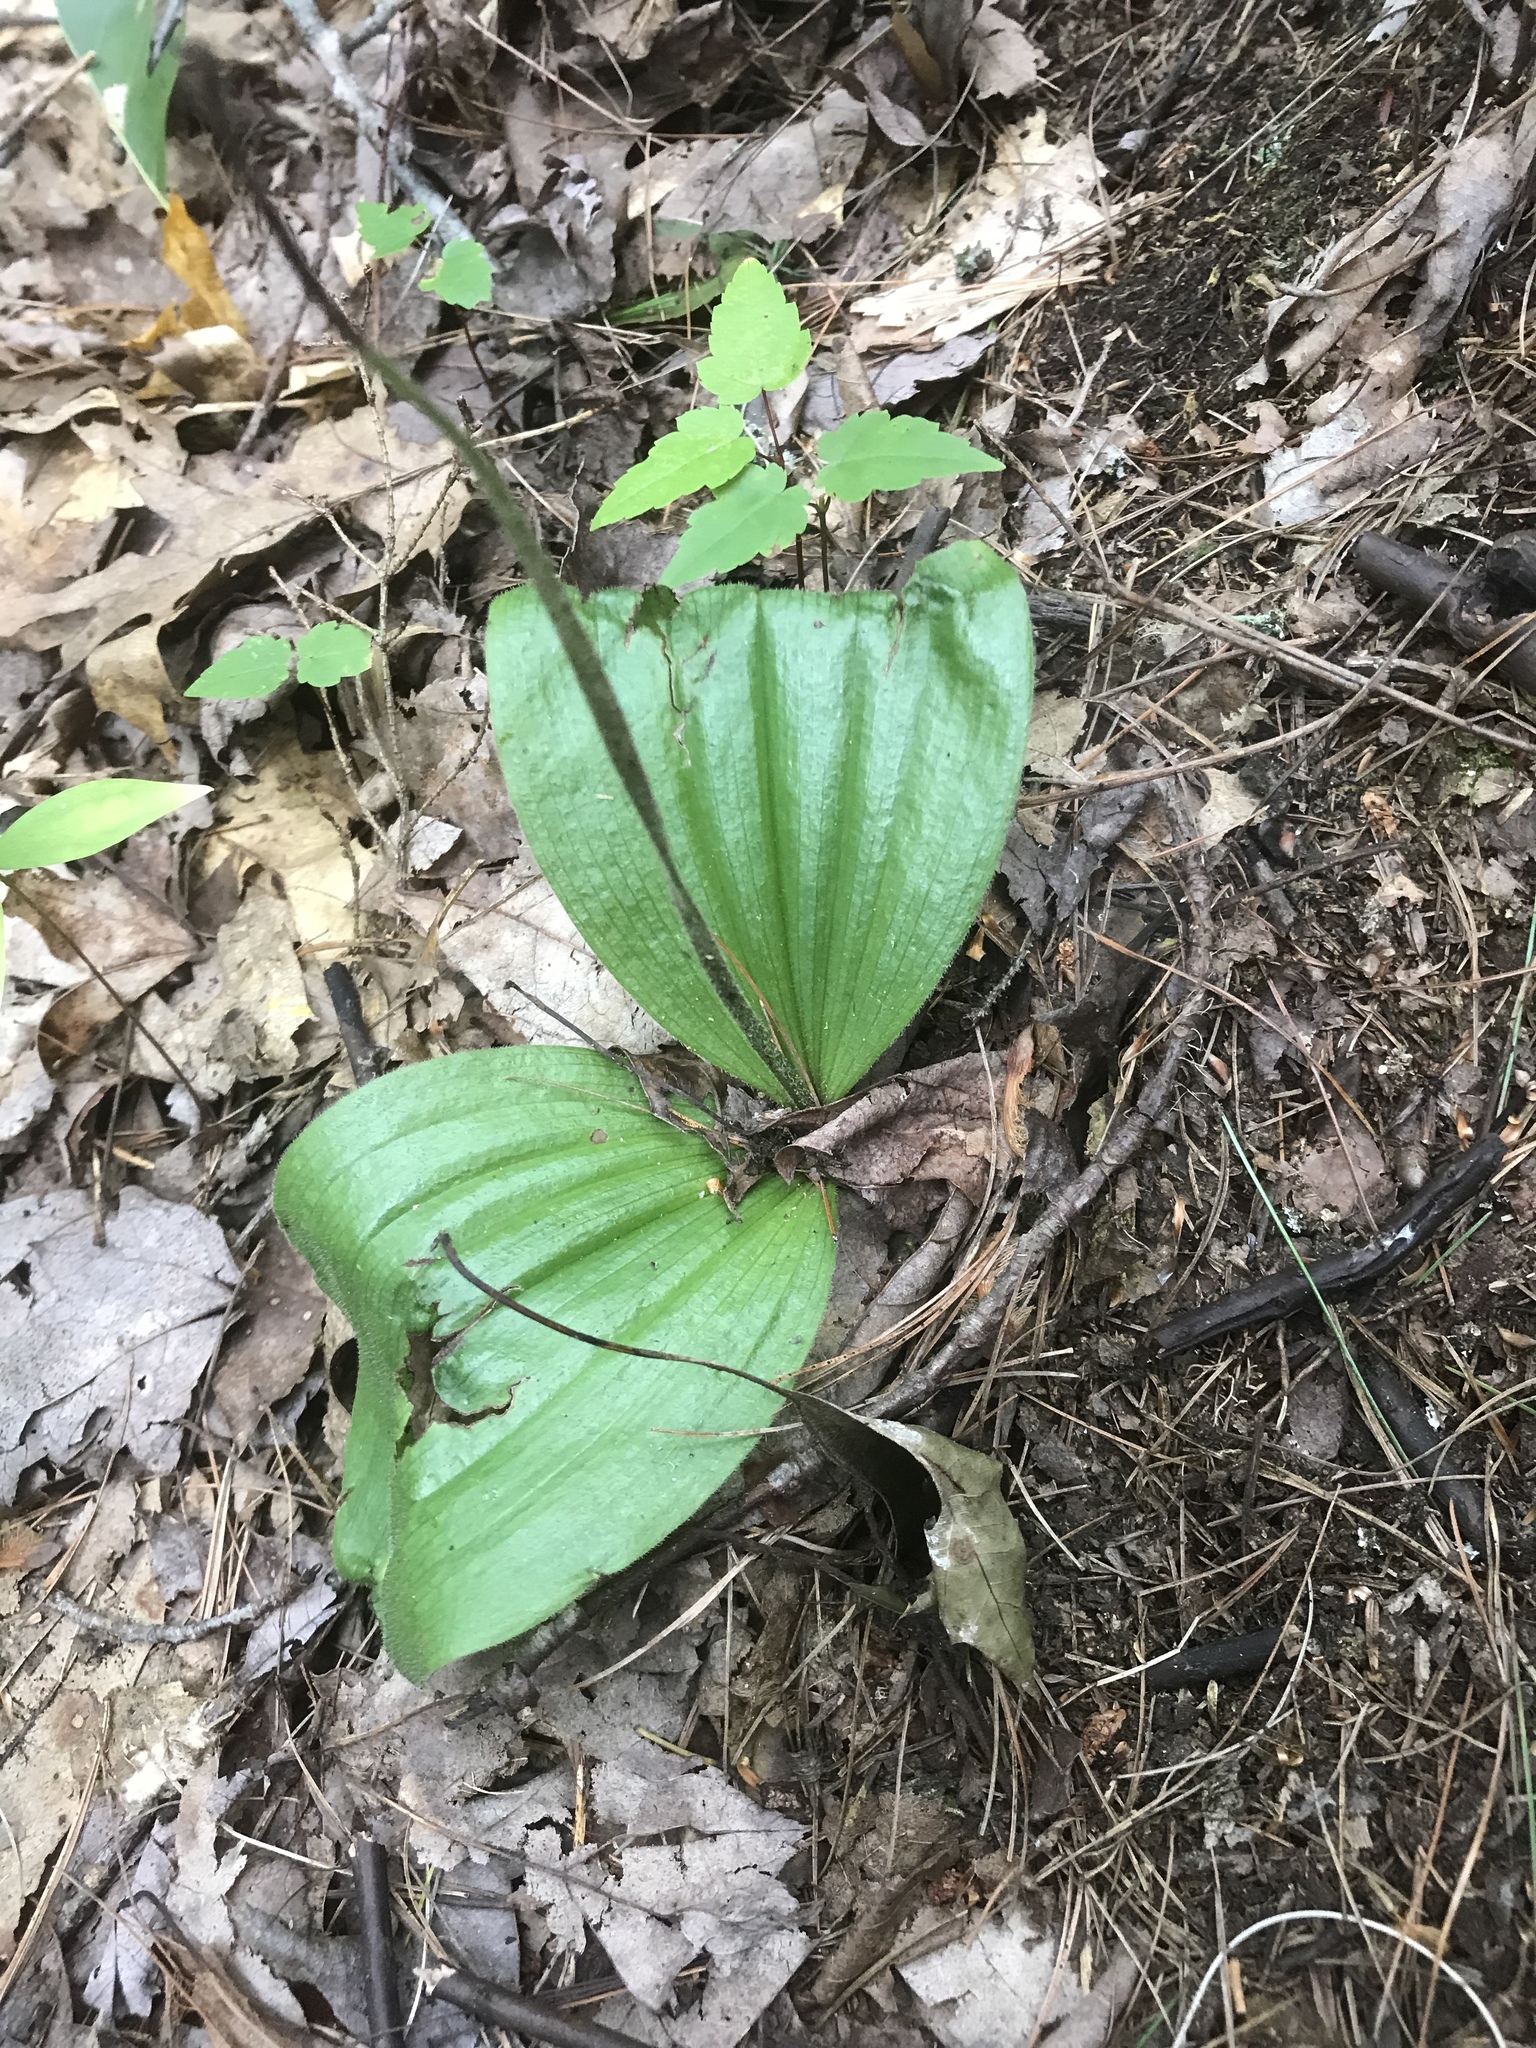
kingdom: Plantae
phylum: Tracheophyta
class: Liliopsida
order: Asparagales
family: Orchidaceae
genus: Cypripedium
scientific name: Cypripedium acaule
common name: Pink lady's-slipper
